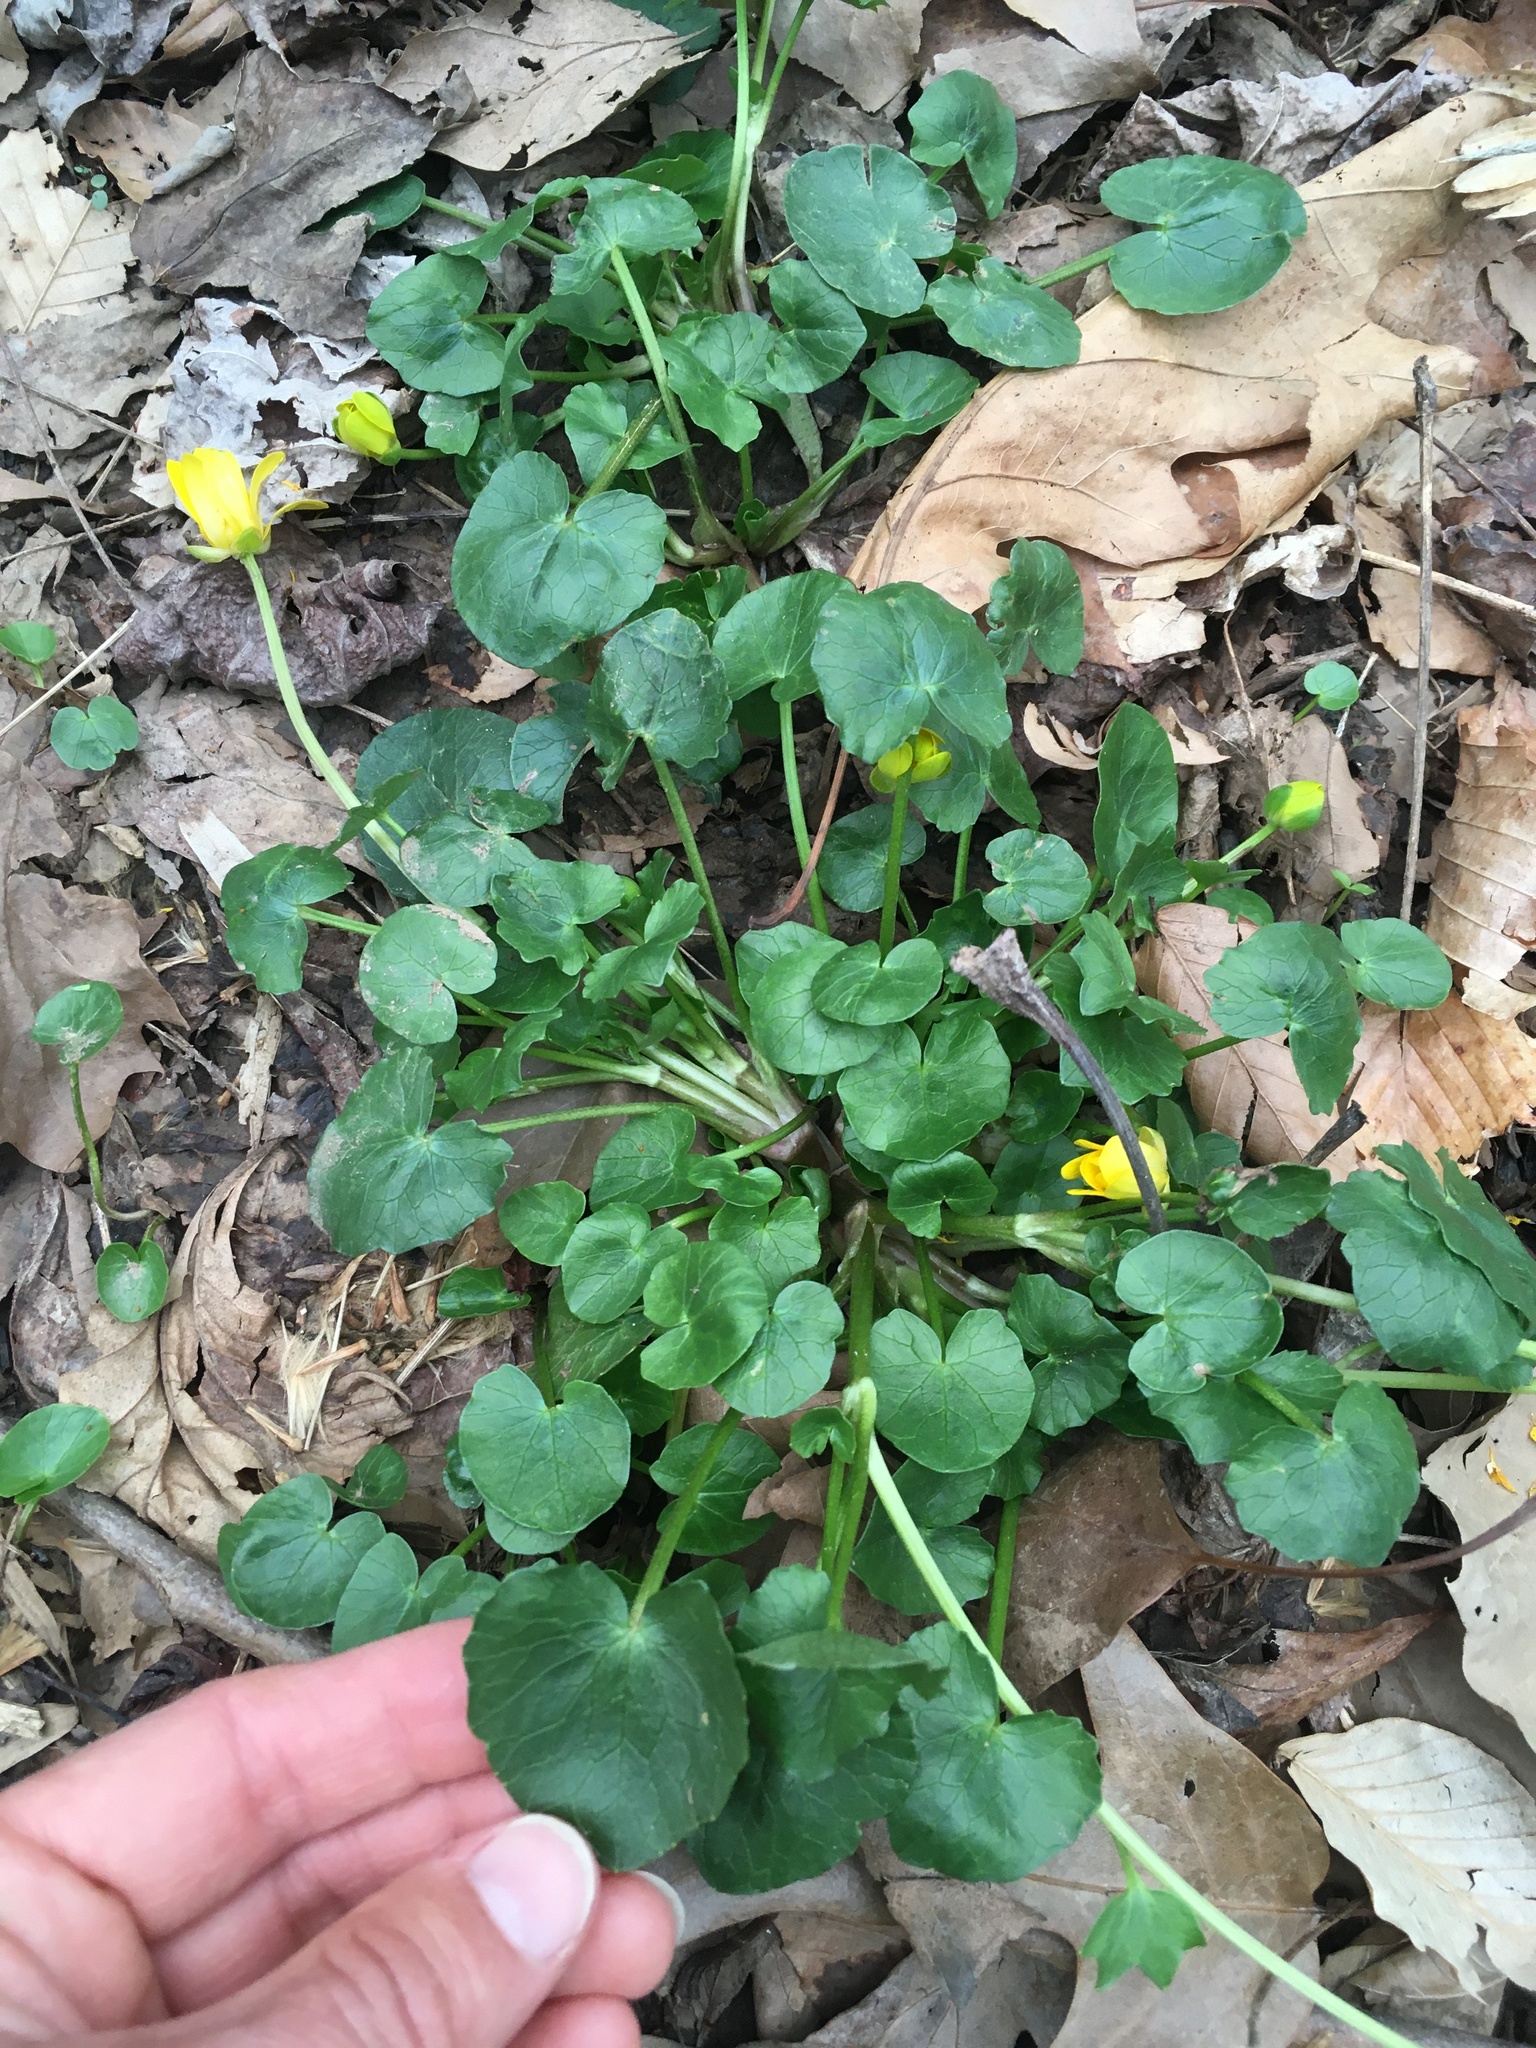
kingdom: Plantae
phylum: Tracheophyta
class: Magnoliopsida
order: Ranunculales
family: Ranunculaceae
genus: Ficaria
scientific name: Ficaria verna
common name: Lesser celandine
